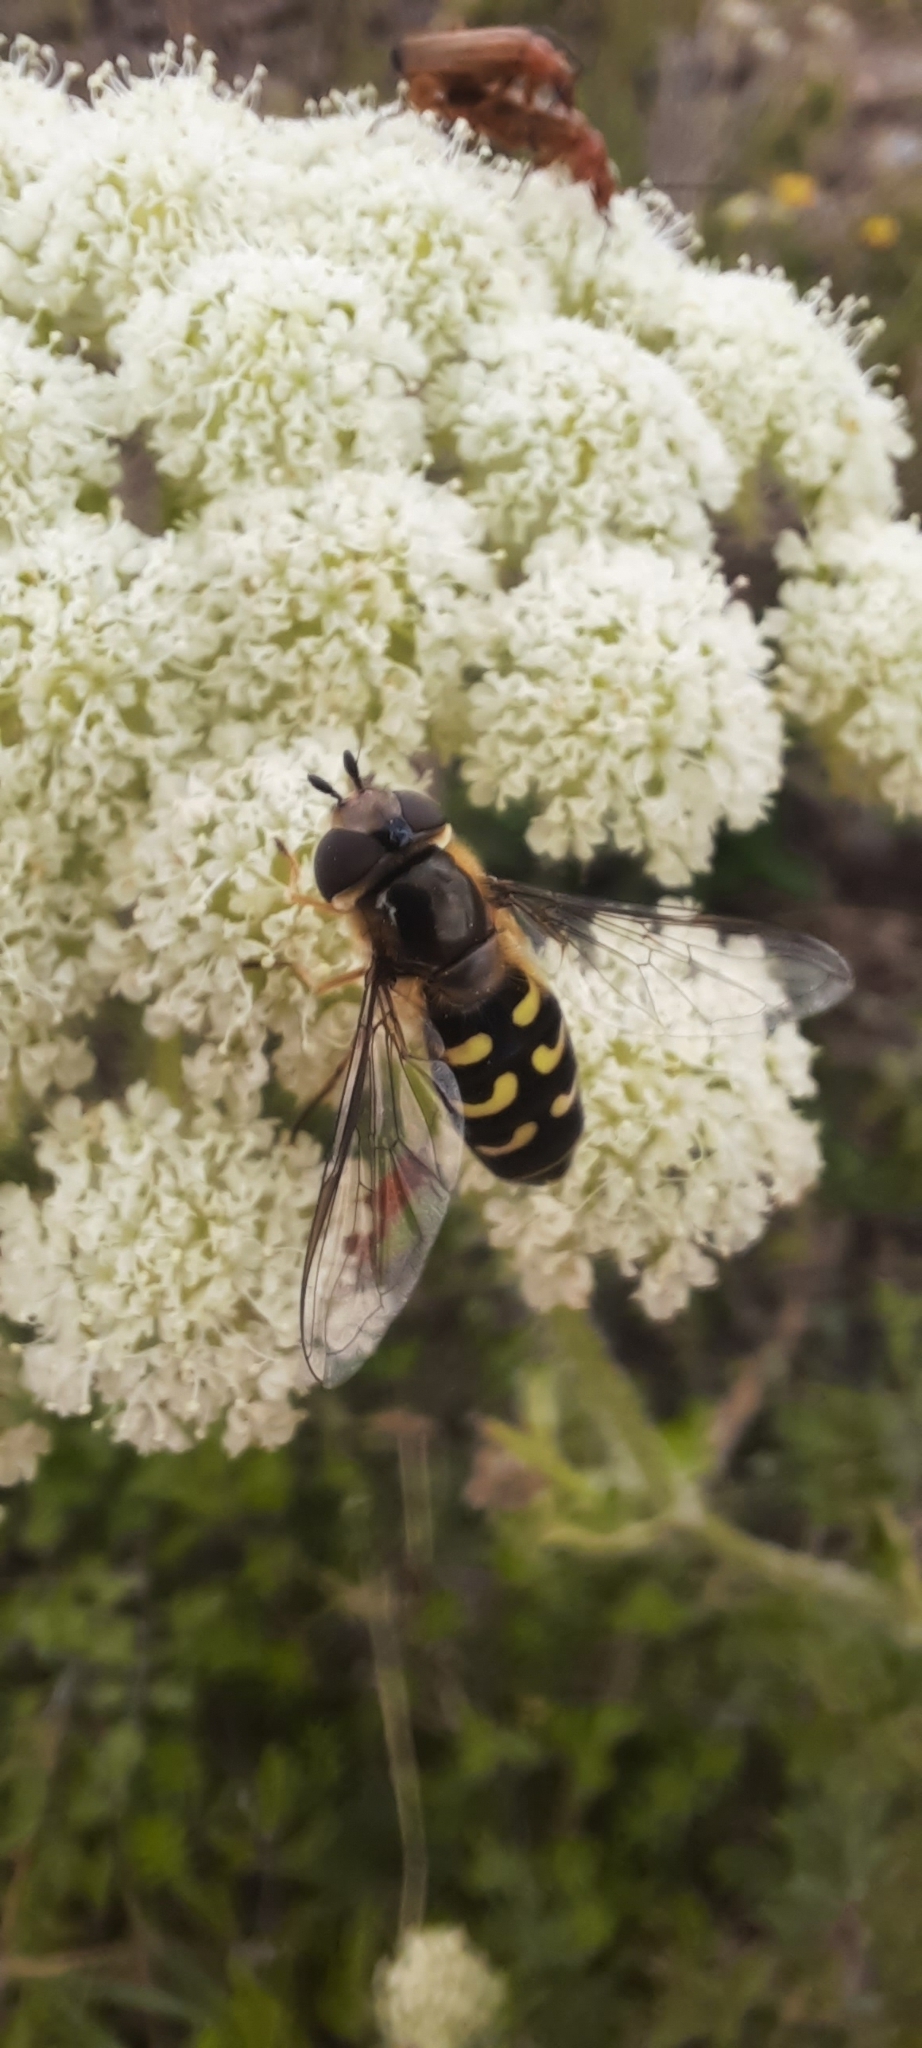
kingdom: Animalia
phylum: Arthropoda
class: Insecta
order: Diptera
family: Syrphidae
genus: Scaeva
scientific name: Scaeva selenitica
